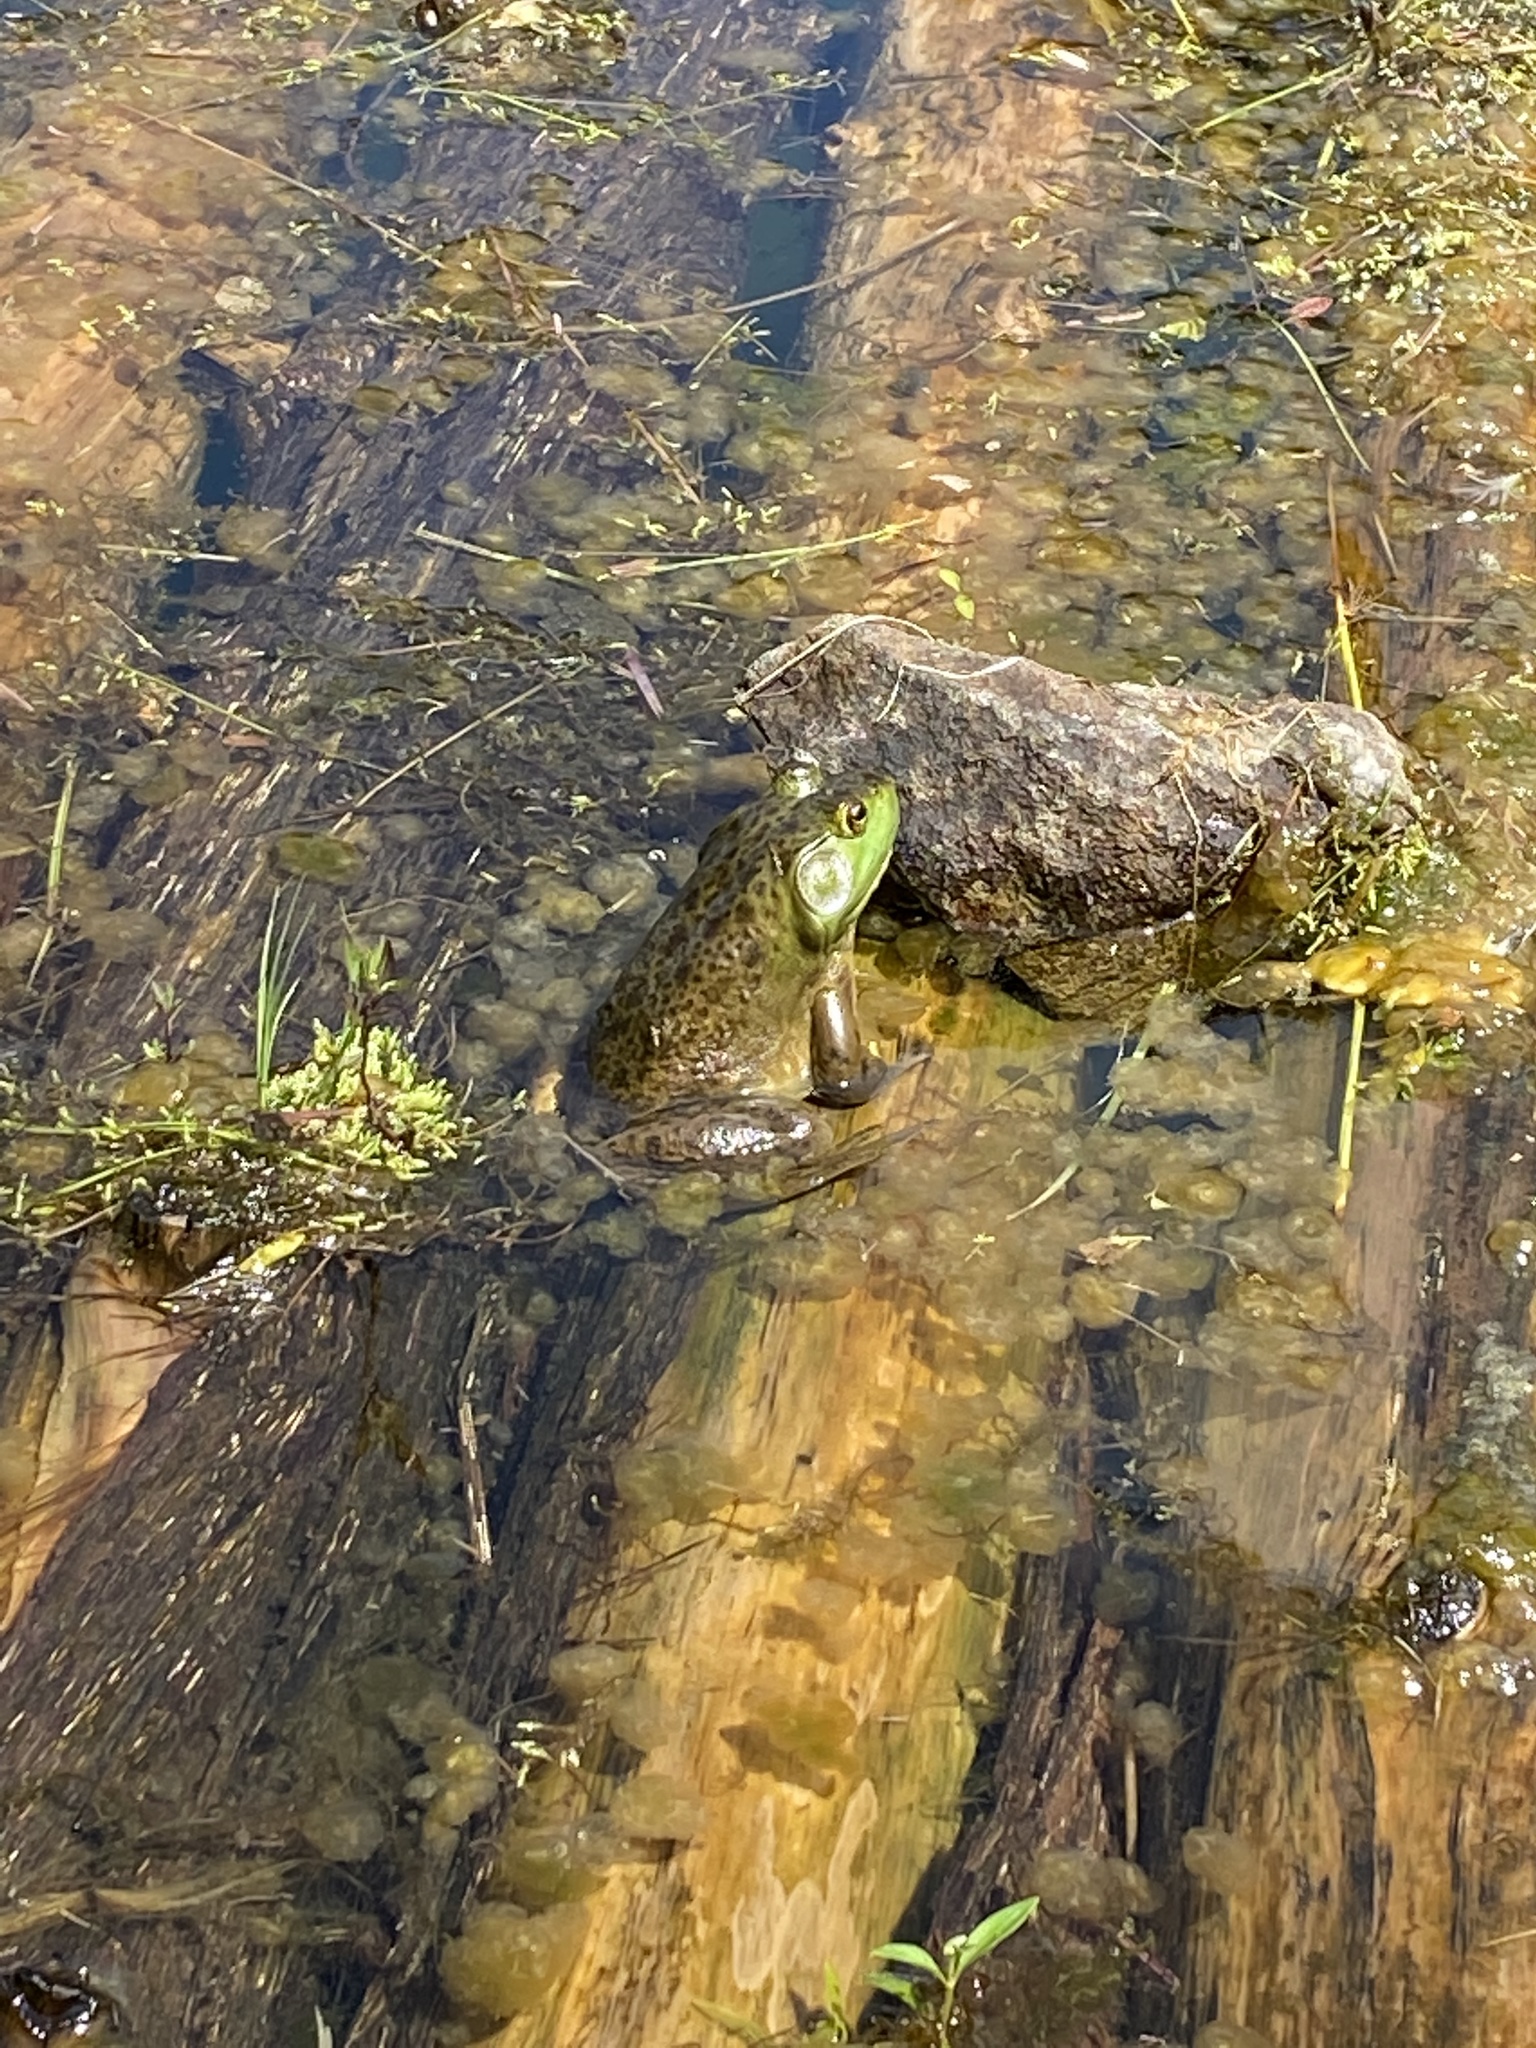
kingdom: Animalia
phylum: Chordata
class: Amphibia
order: Anura
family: Ranidae
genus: Lithobates
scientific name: Lithobates catesbeianus
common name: American bullfrog
